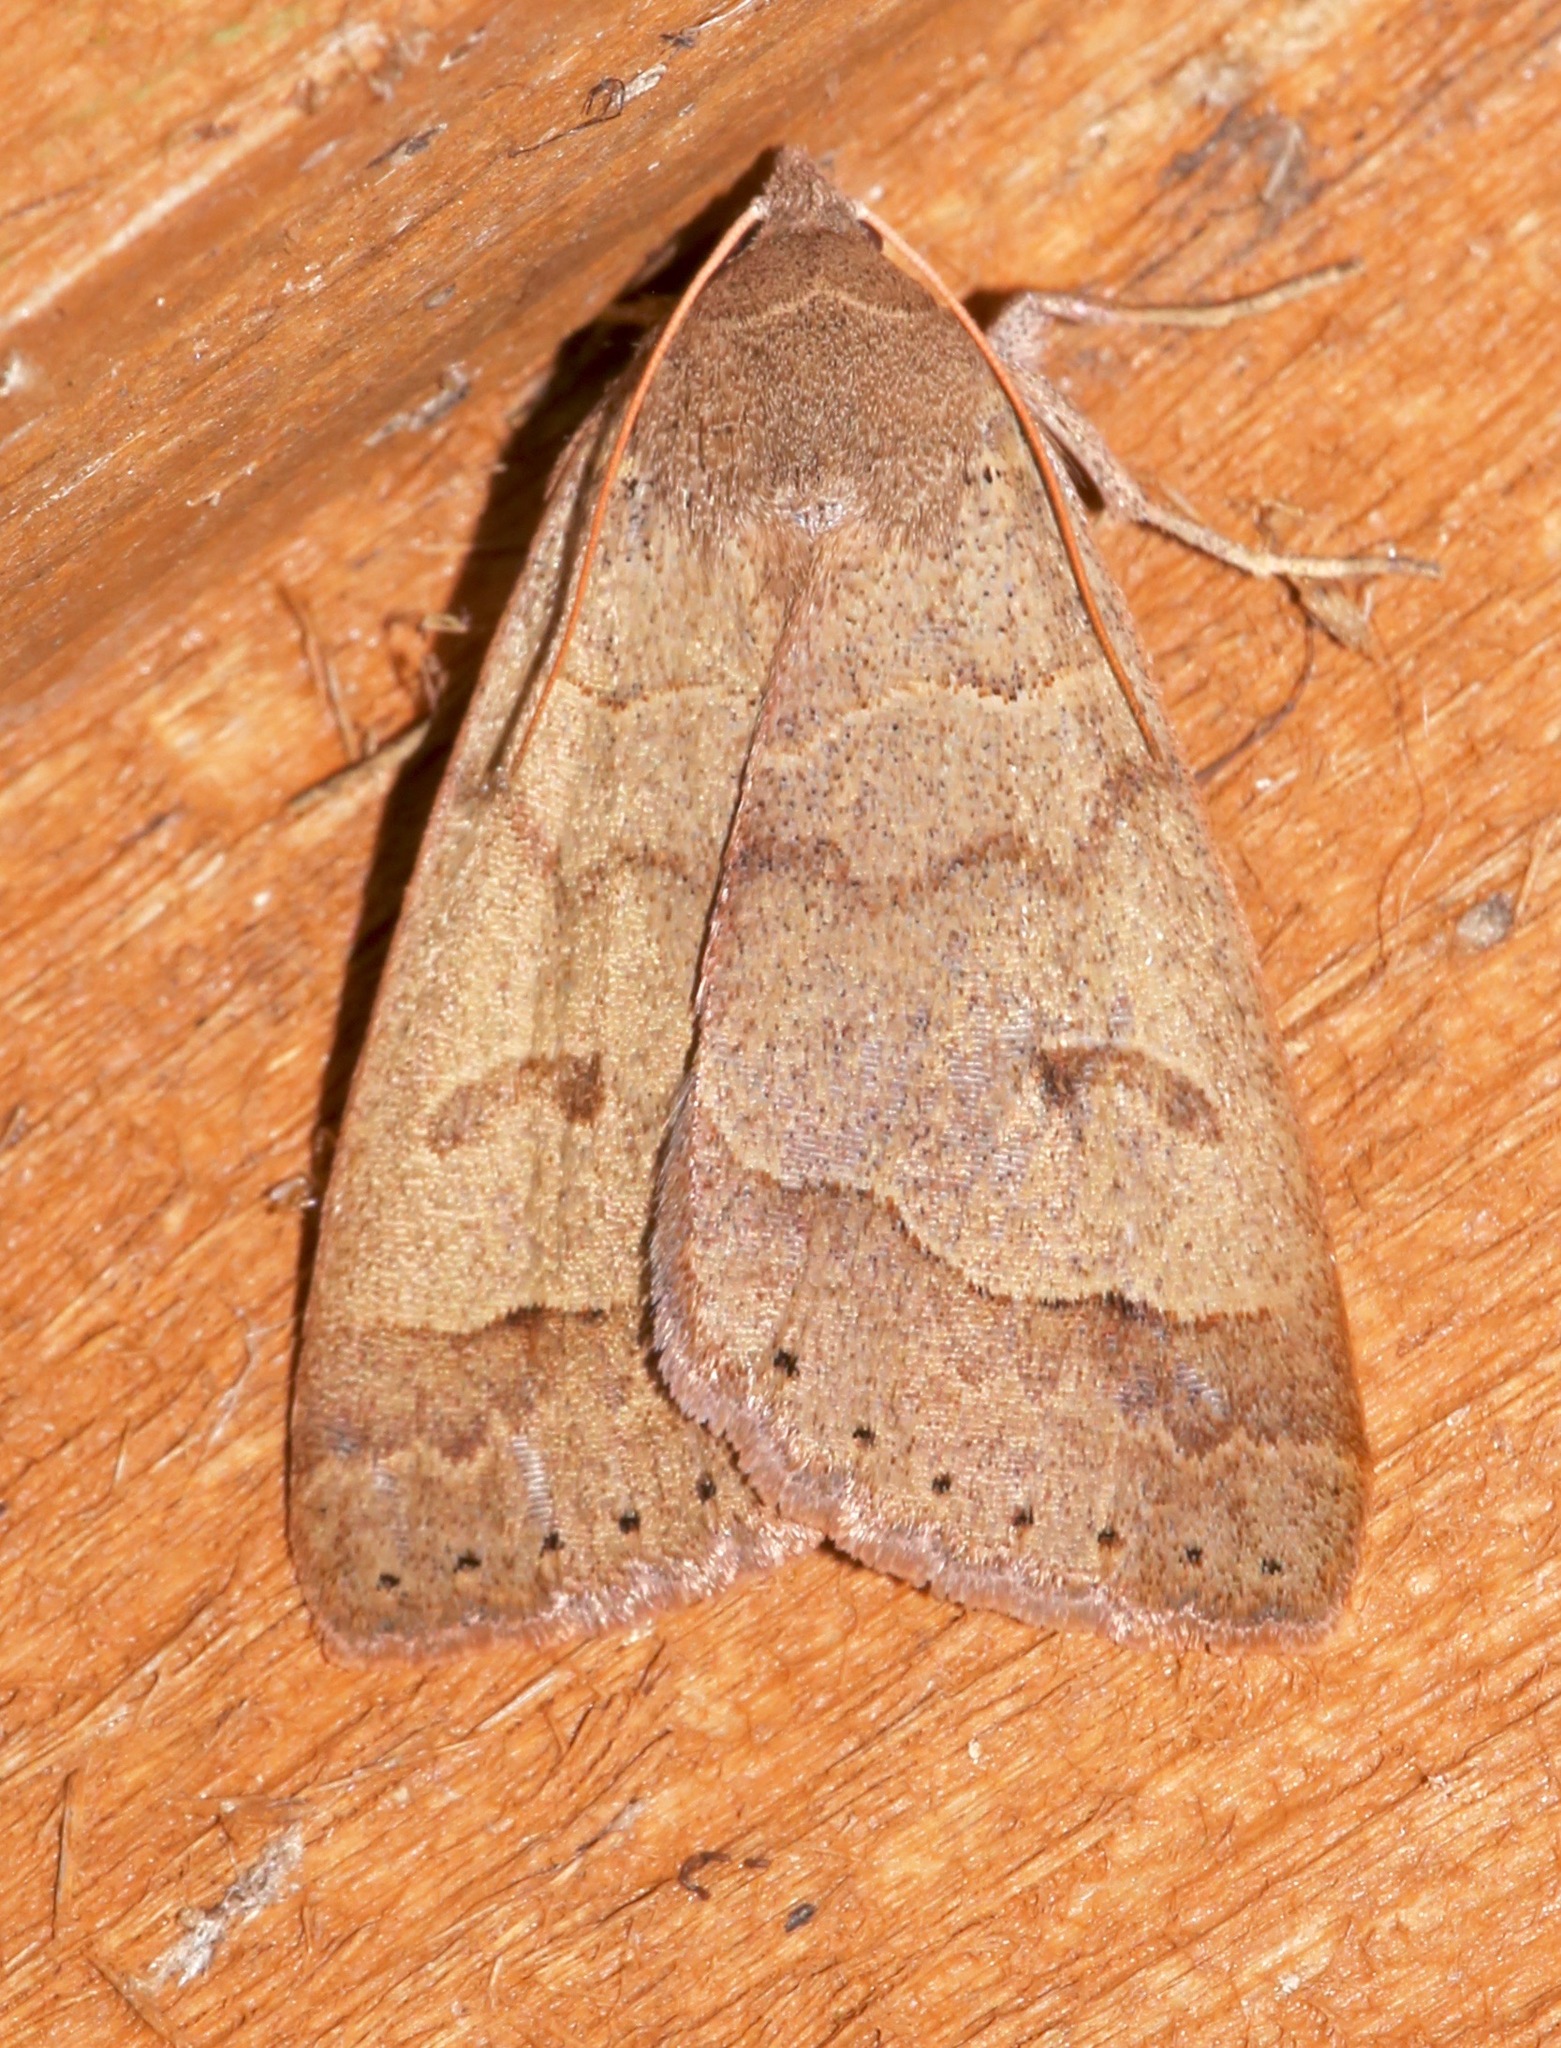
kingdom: Animalia
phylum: Arthropoda
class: Insecta
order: Lepidoptera
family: Erebidae
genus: Phoberia
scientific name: Phoberia atomaris
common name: Common oak moth
